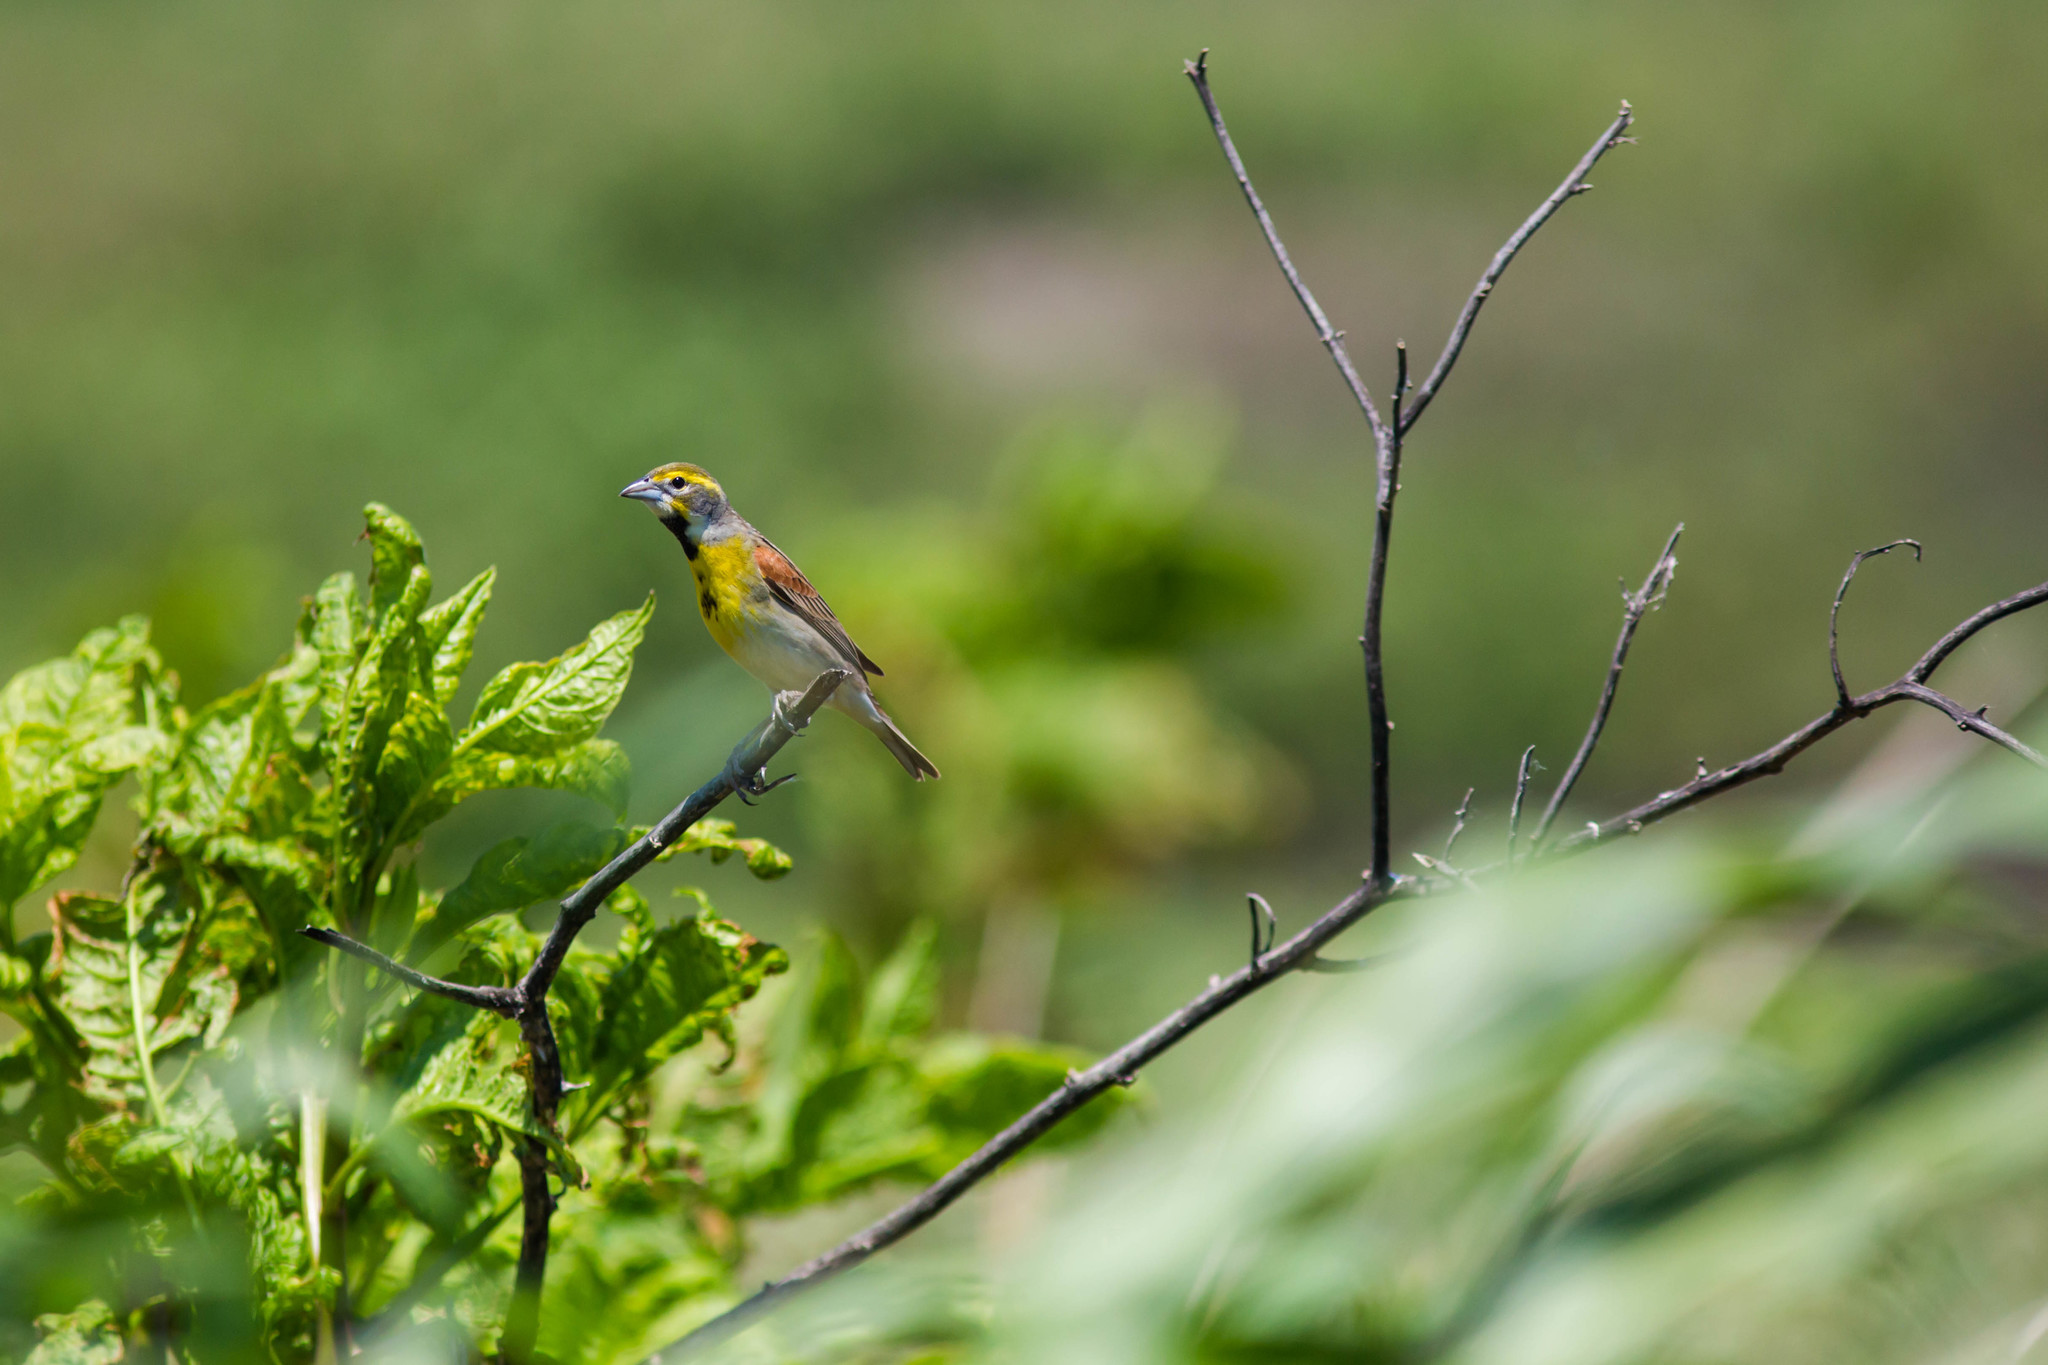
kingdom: Animalia
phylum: Chordata
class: Aves
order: Passeriformes
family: Cardinalidae
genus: Spiza
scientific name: Spiza americana
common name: Dickcissel
